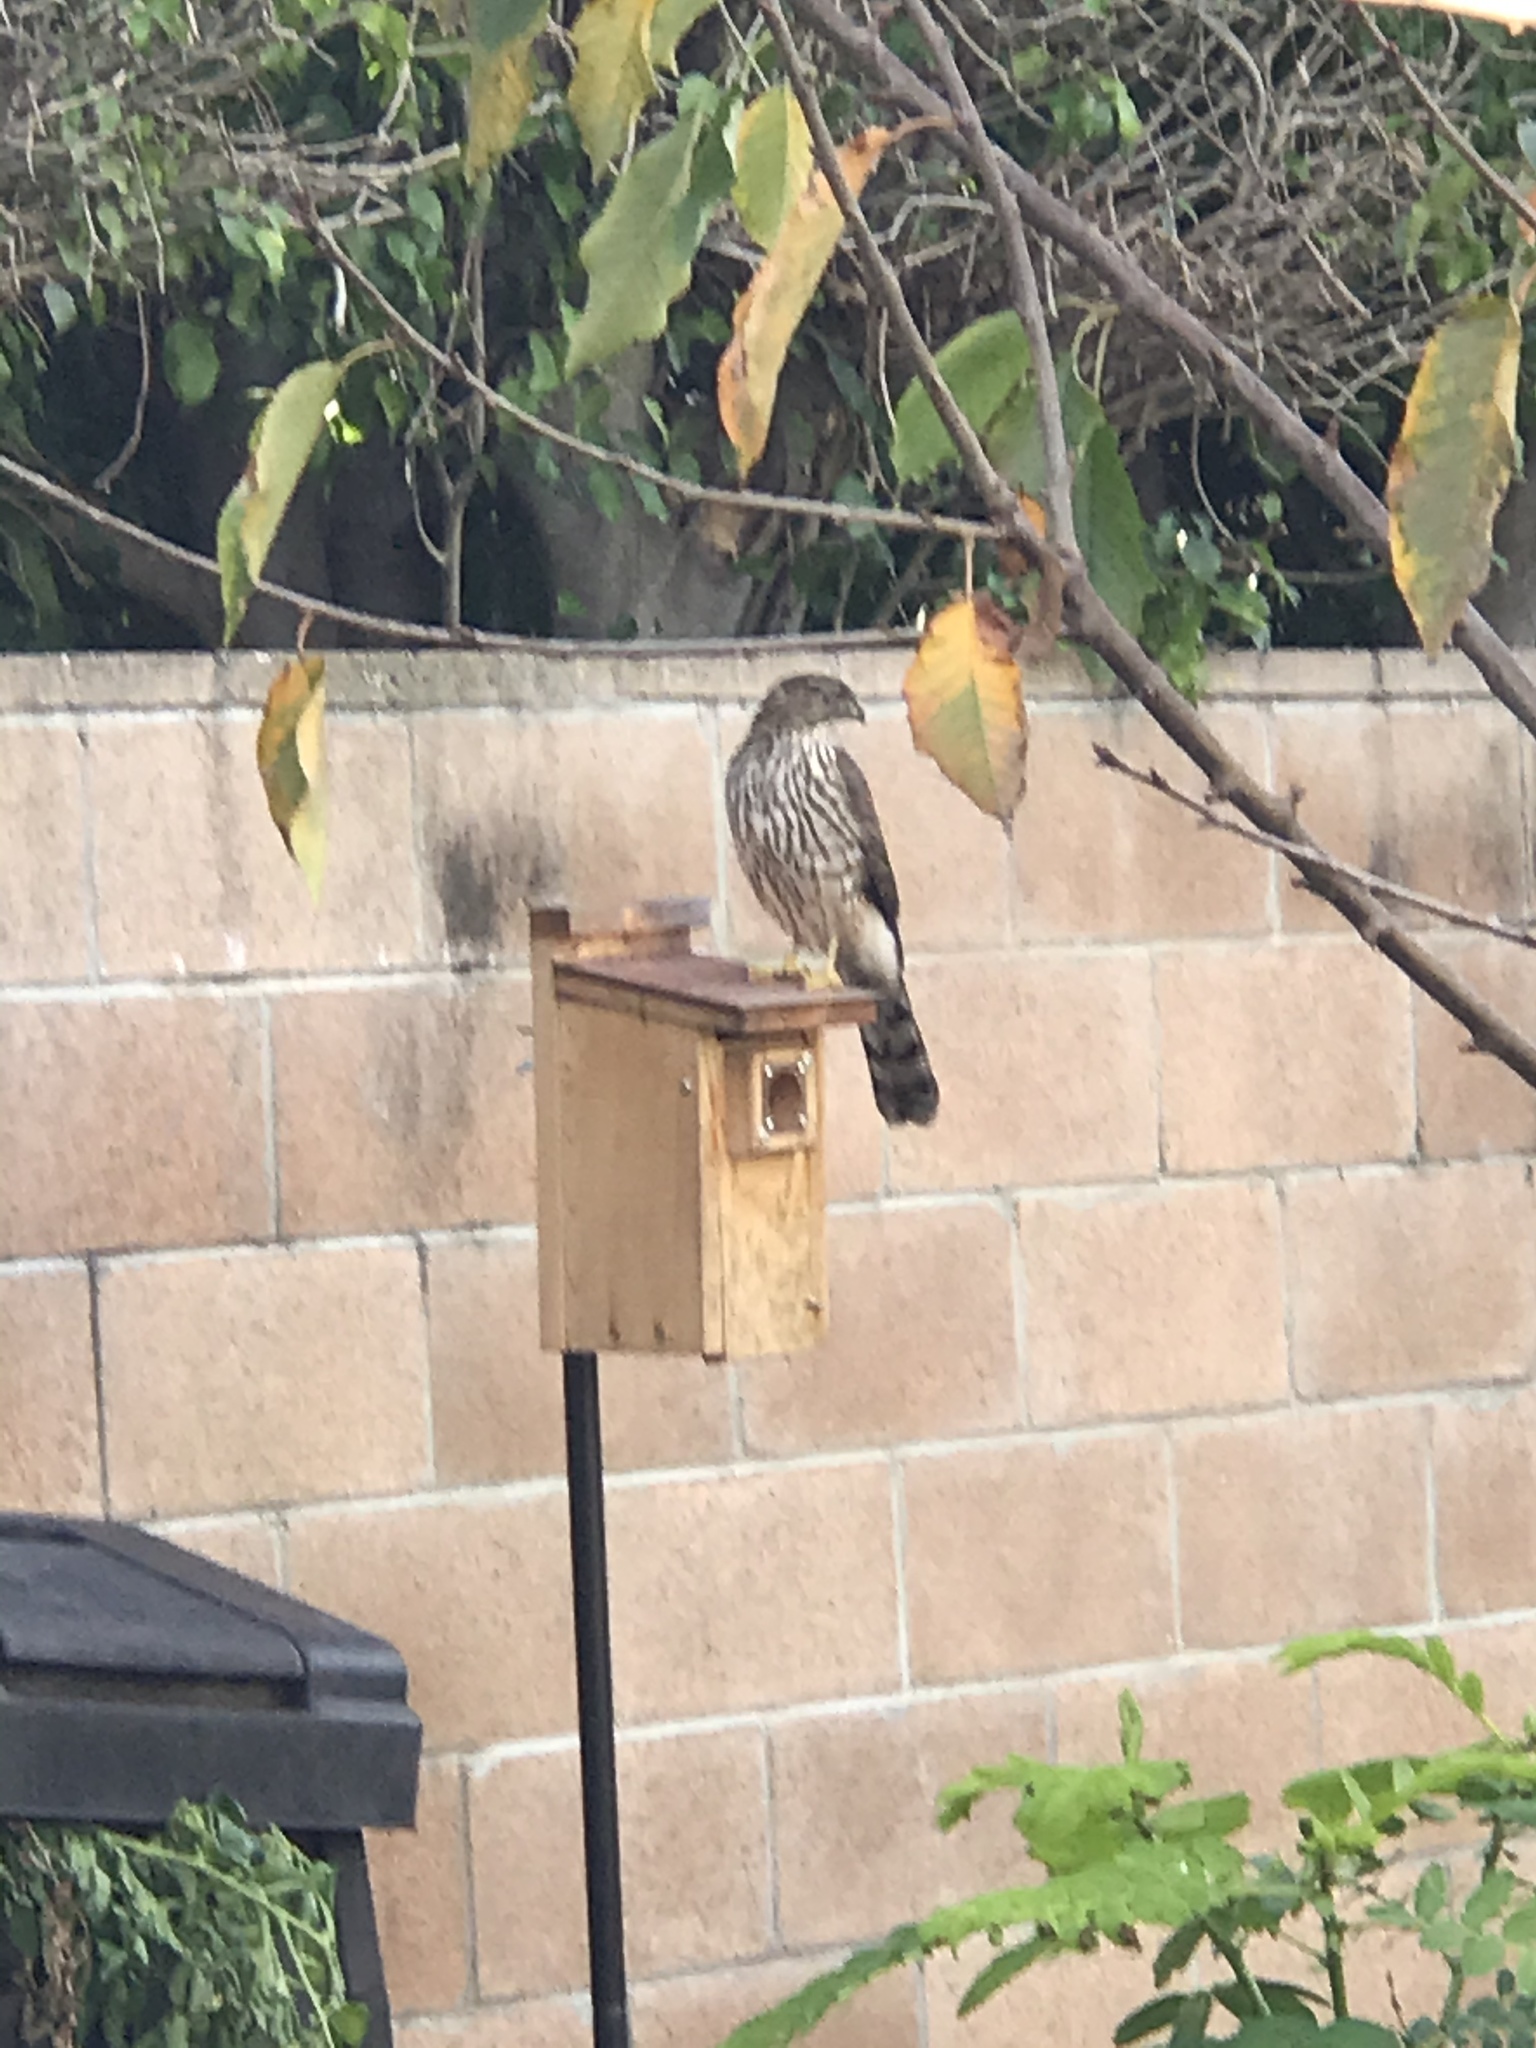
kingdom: Animalia
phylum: Chordata
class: Aves
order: Accipitriformes
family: Accipitridae
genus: Accipiter
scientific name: Accipiter cooperii
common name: Cooper's hawk
